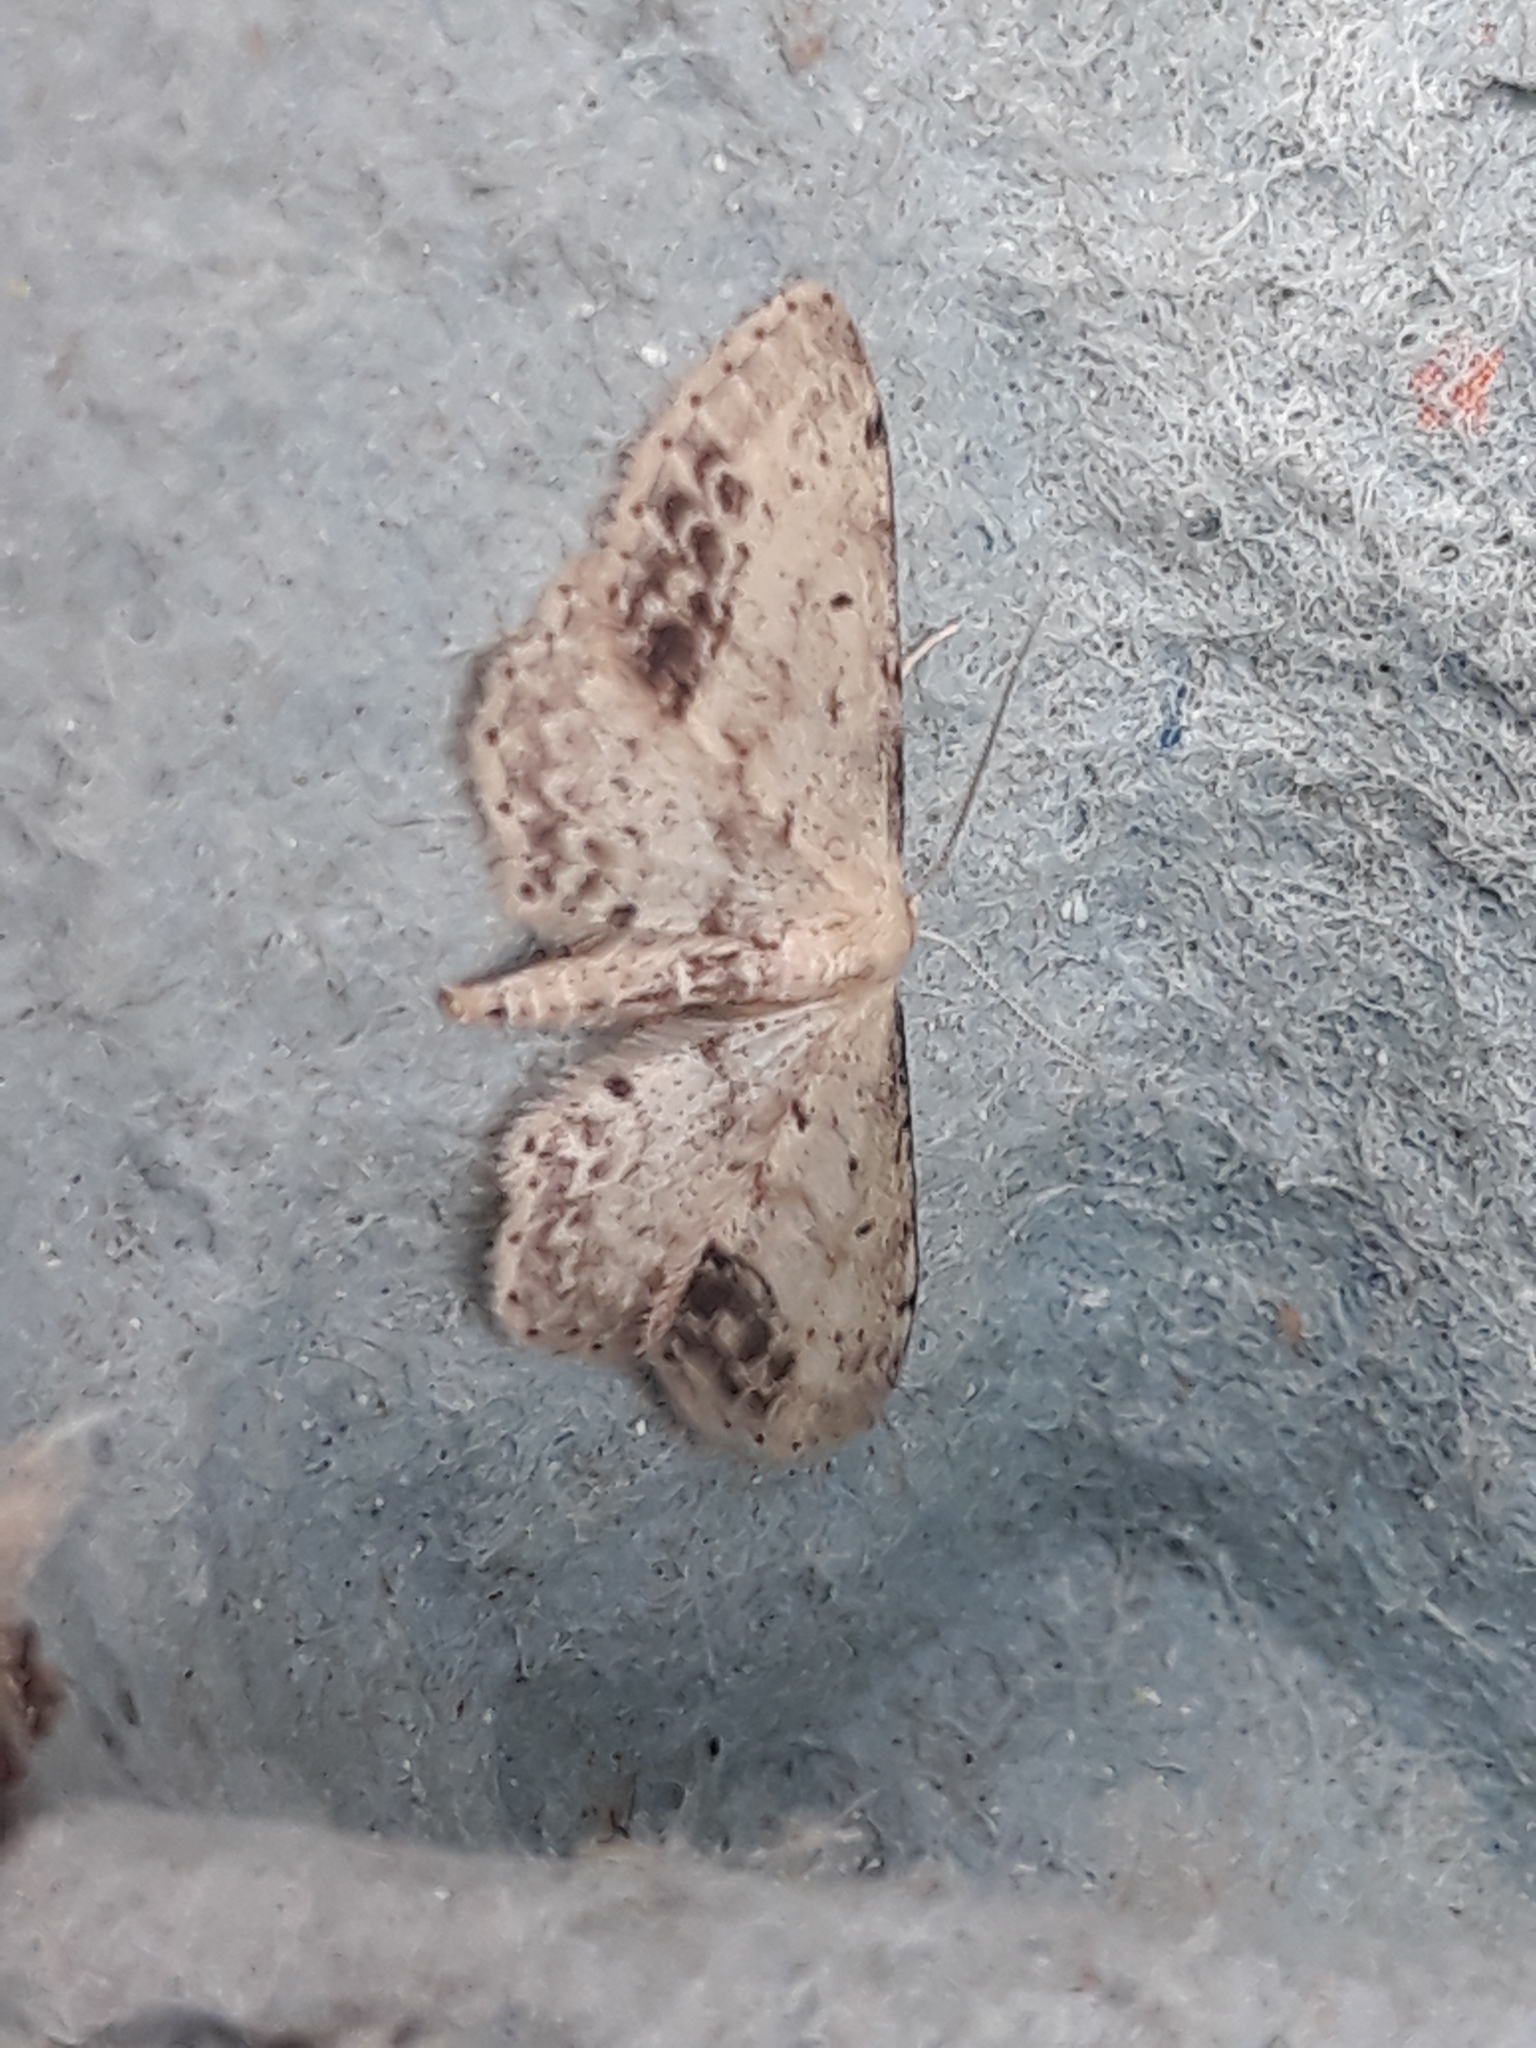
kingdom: Animalia
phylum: Arthropoda
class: Insecta
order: Lepidoptera
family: Geometridae
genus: Idaea
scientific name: Idaea dimidiata
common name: Single-dotted wave
